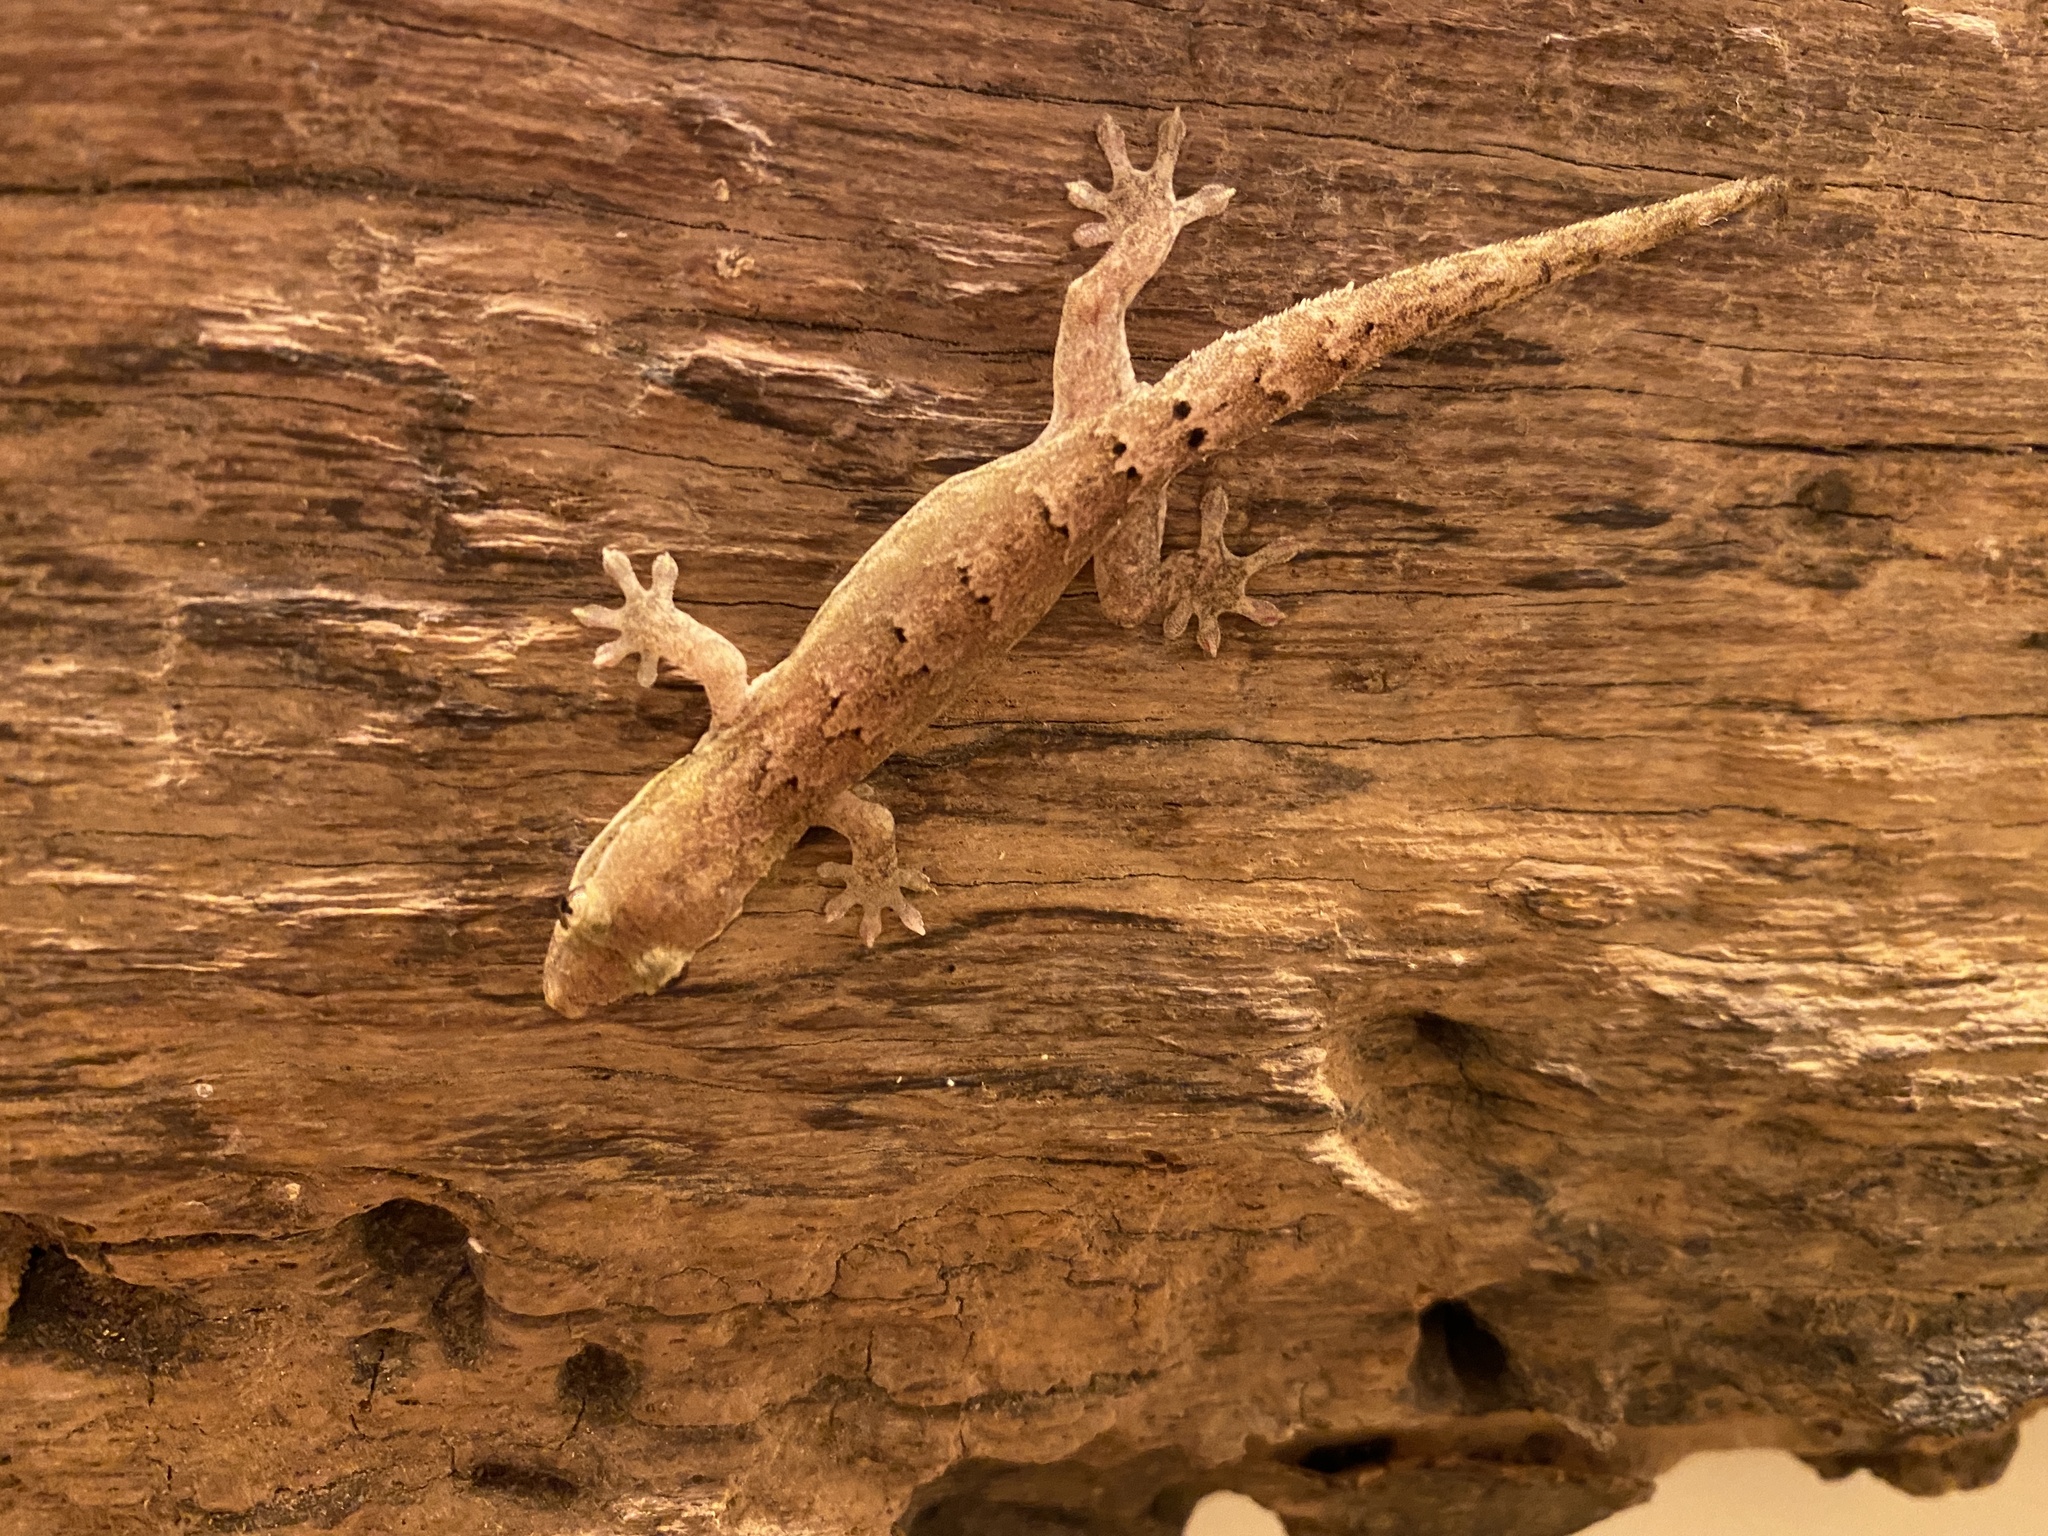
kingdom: Animalia
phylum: Chordata
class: Squamata
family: Gekkonidae
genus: Lepidodactylus
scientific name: Lepidodactylus lugubris
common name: Mourning gecko
